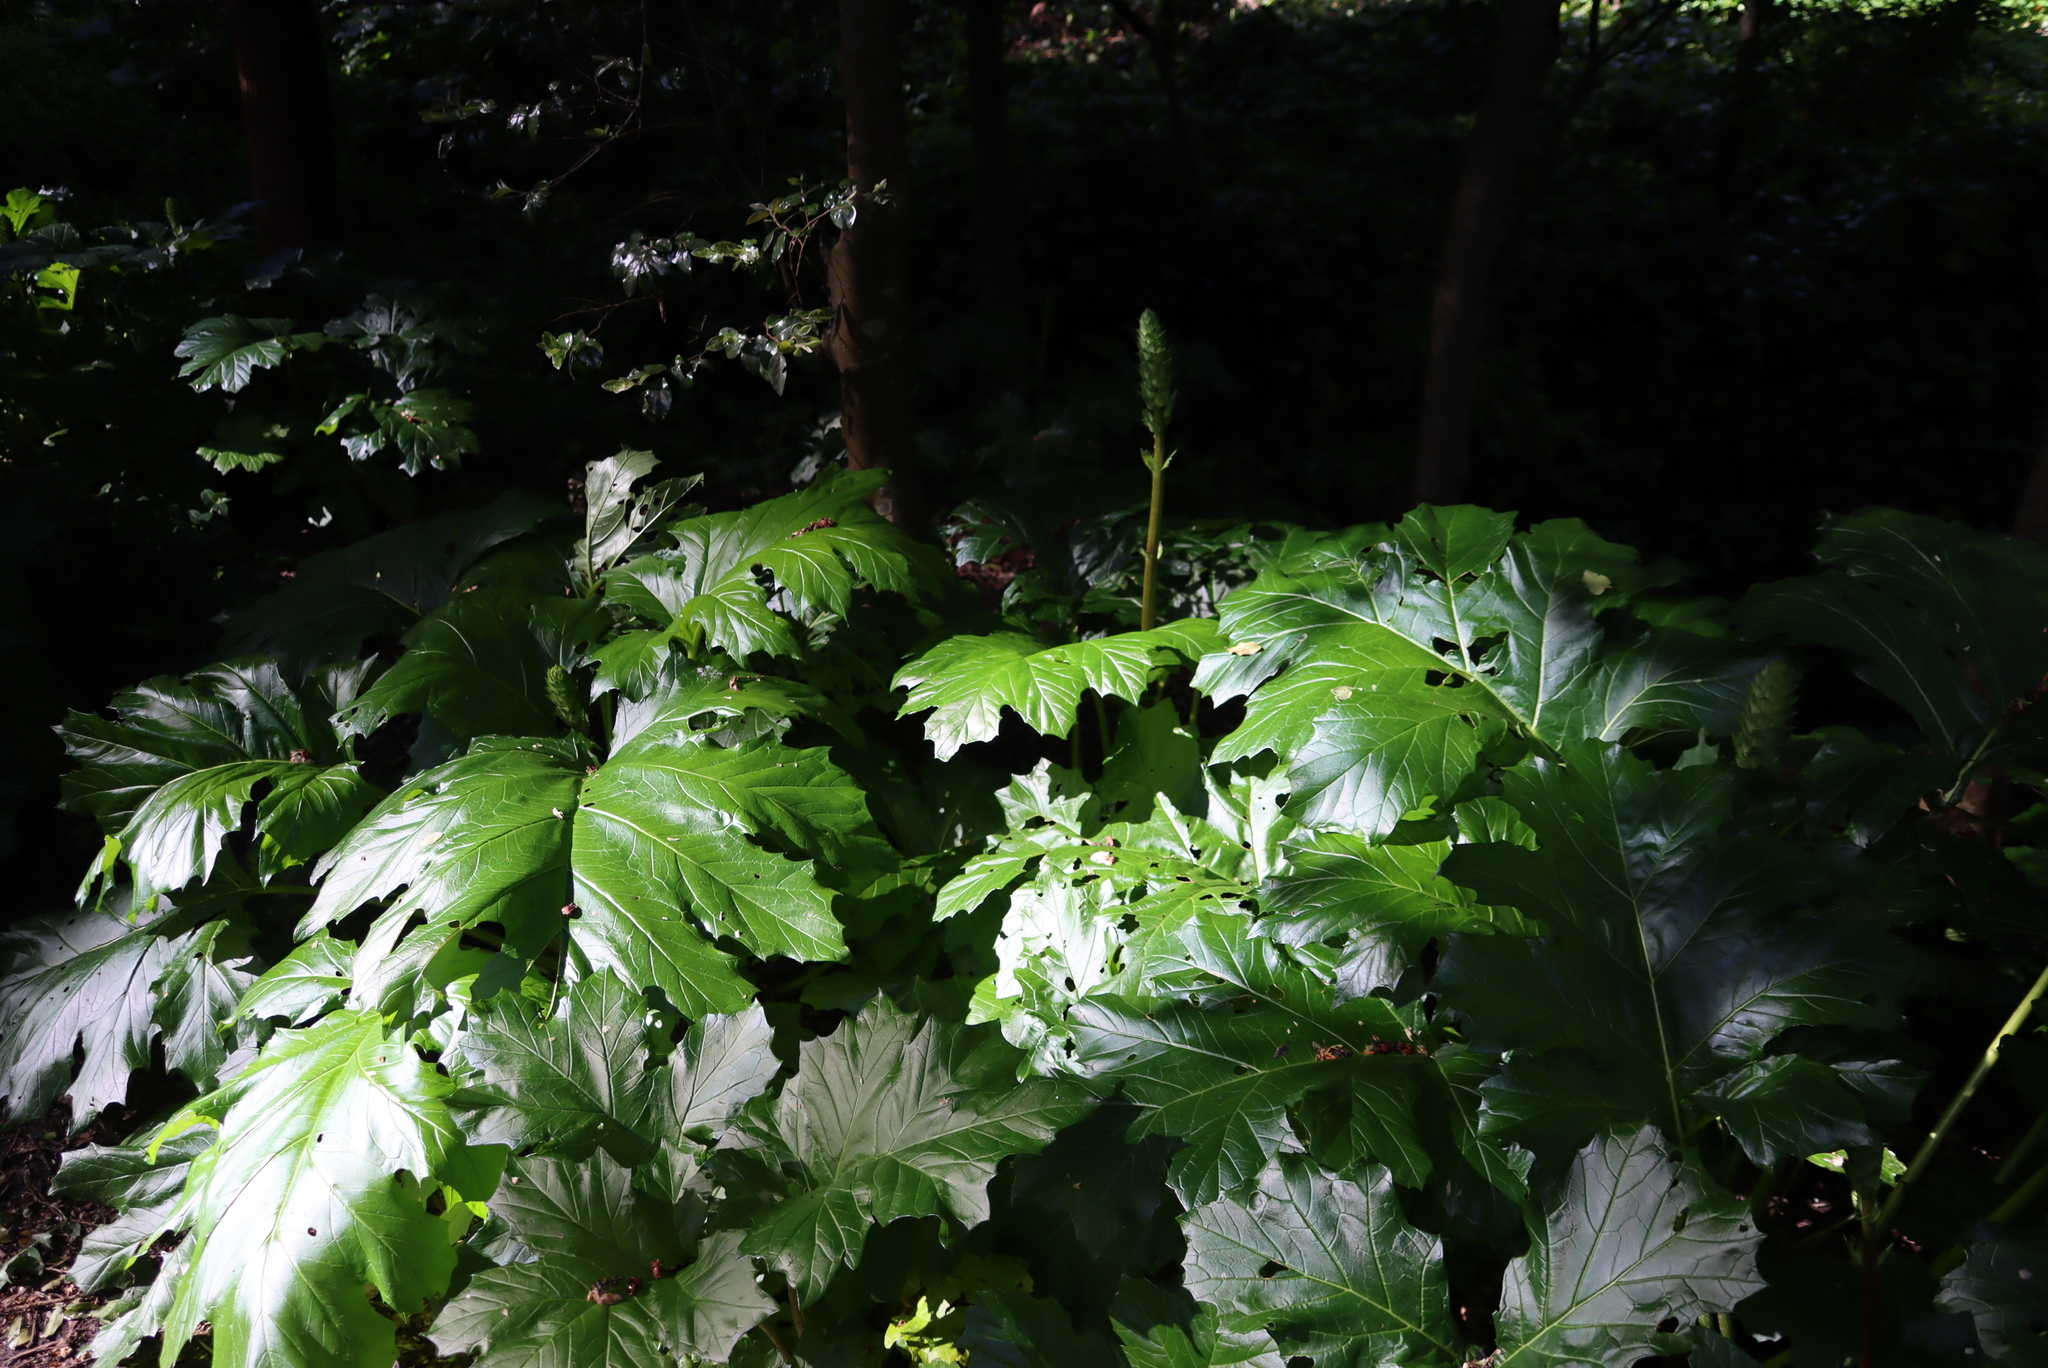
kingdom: Plantae
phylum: Tracheophyta
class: Magnoliopsida
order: Lamiales
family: Acanthaceae
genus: Acanthus
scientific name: Acanthus mollis
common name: Bear's-breech
